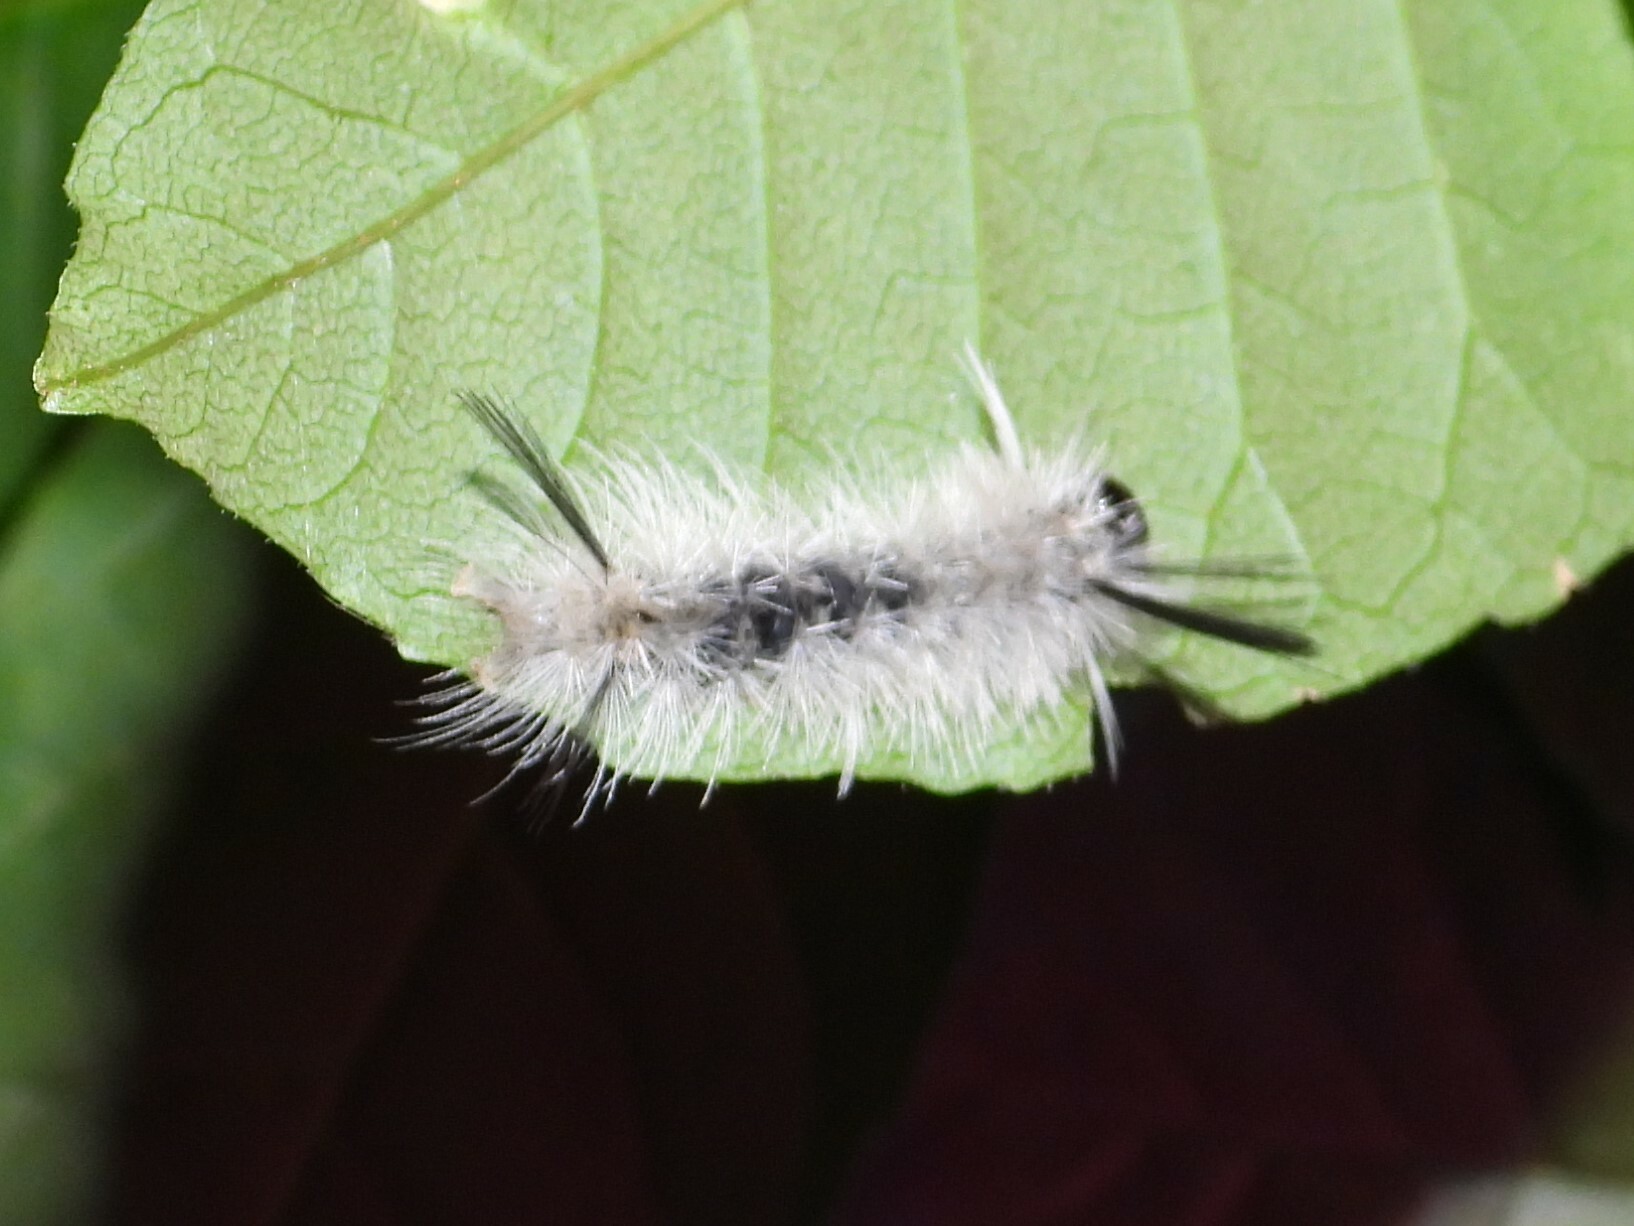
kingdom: Animalia
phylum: Arthropoda
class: Insecta
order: Lepidoptera
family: Erebidae
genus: Halysidota
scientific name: Halysidota tessellaris
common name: Banded tussock moth
